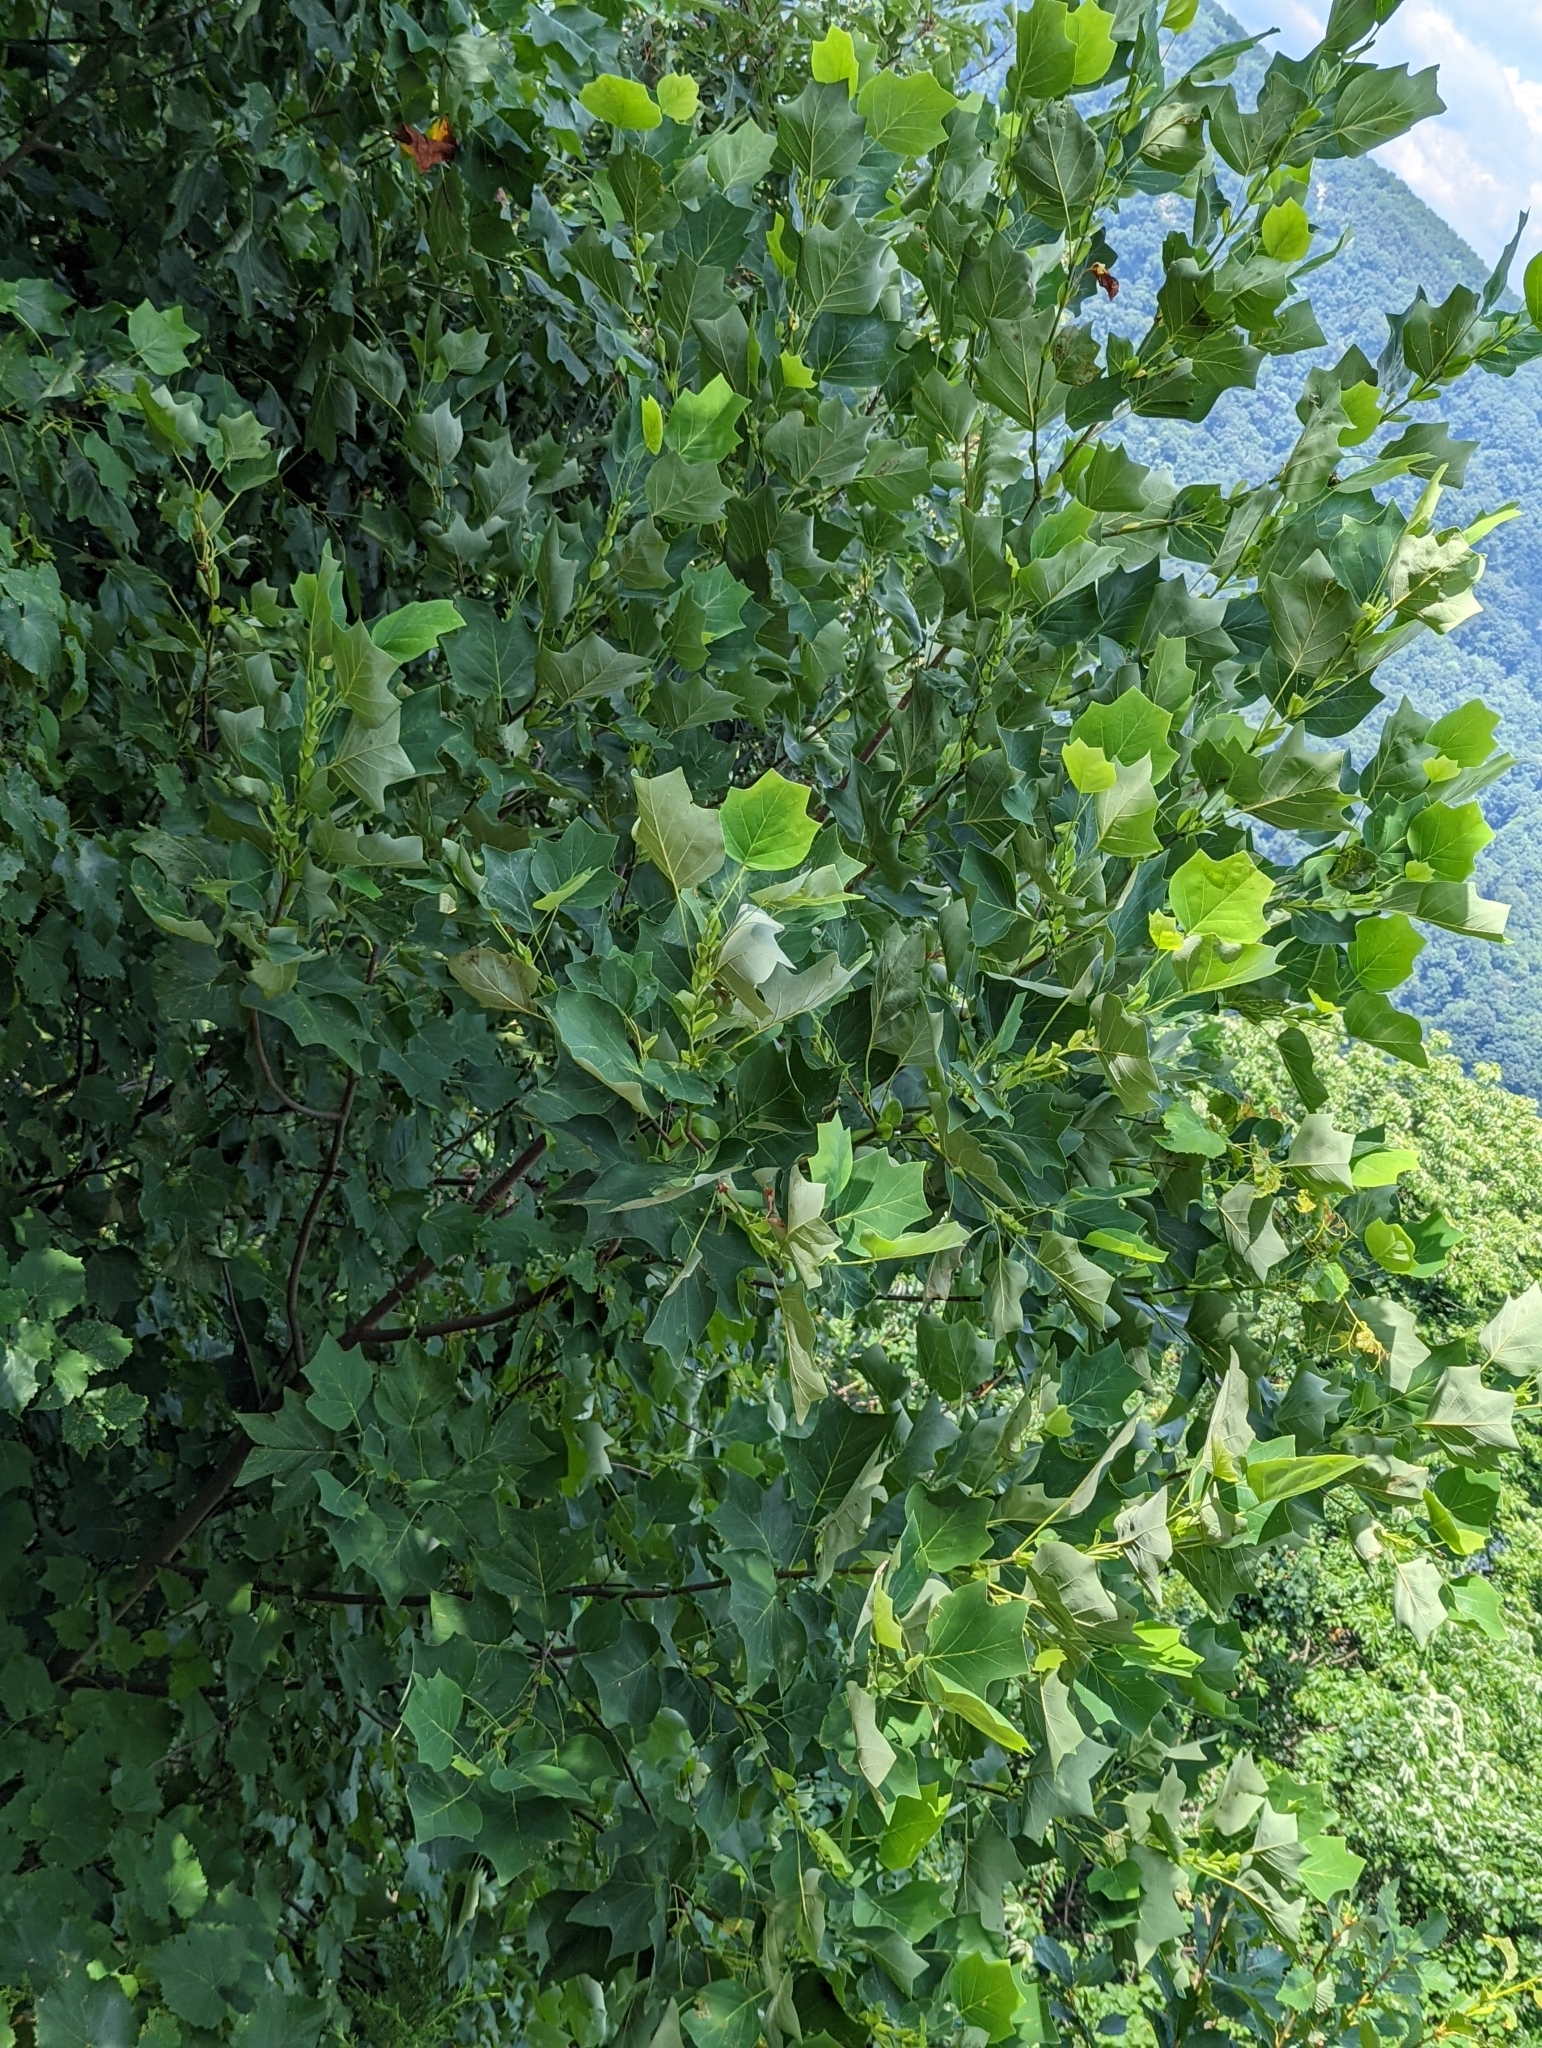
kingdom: Plantae
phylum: Tracheophyta
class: Magnoliopsida
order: Magnoliales
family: Magnoliaceae
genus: Liriodendron
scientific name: Liriodendron tulipifera
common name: Tulip tree
